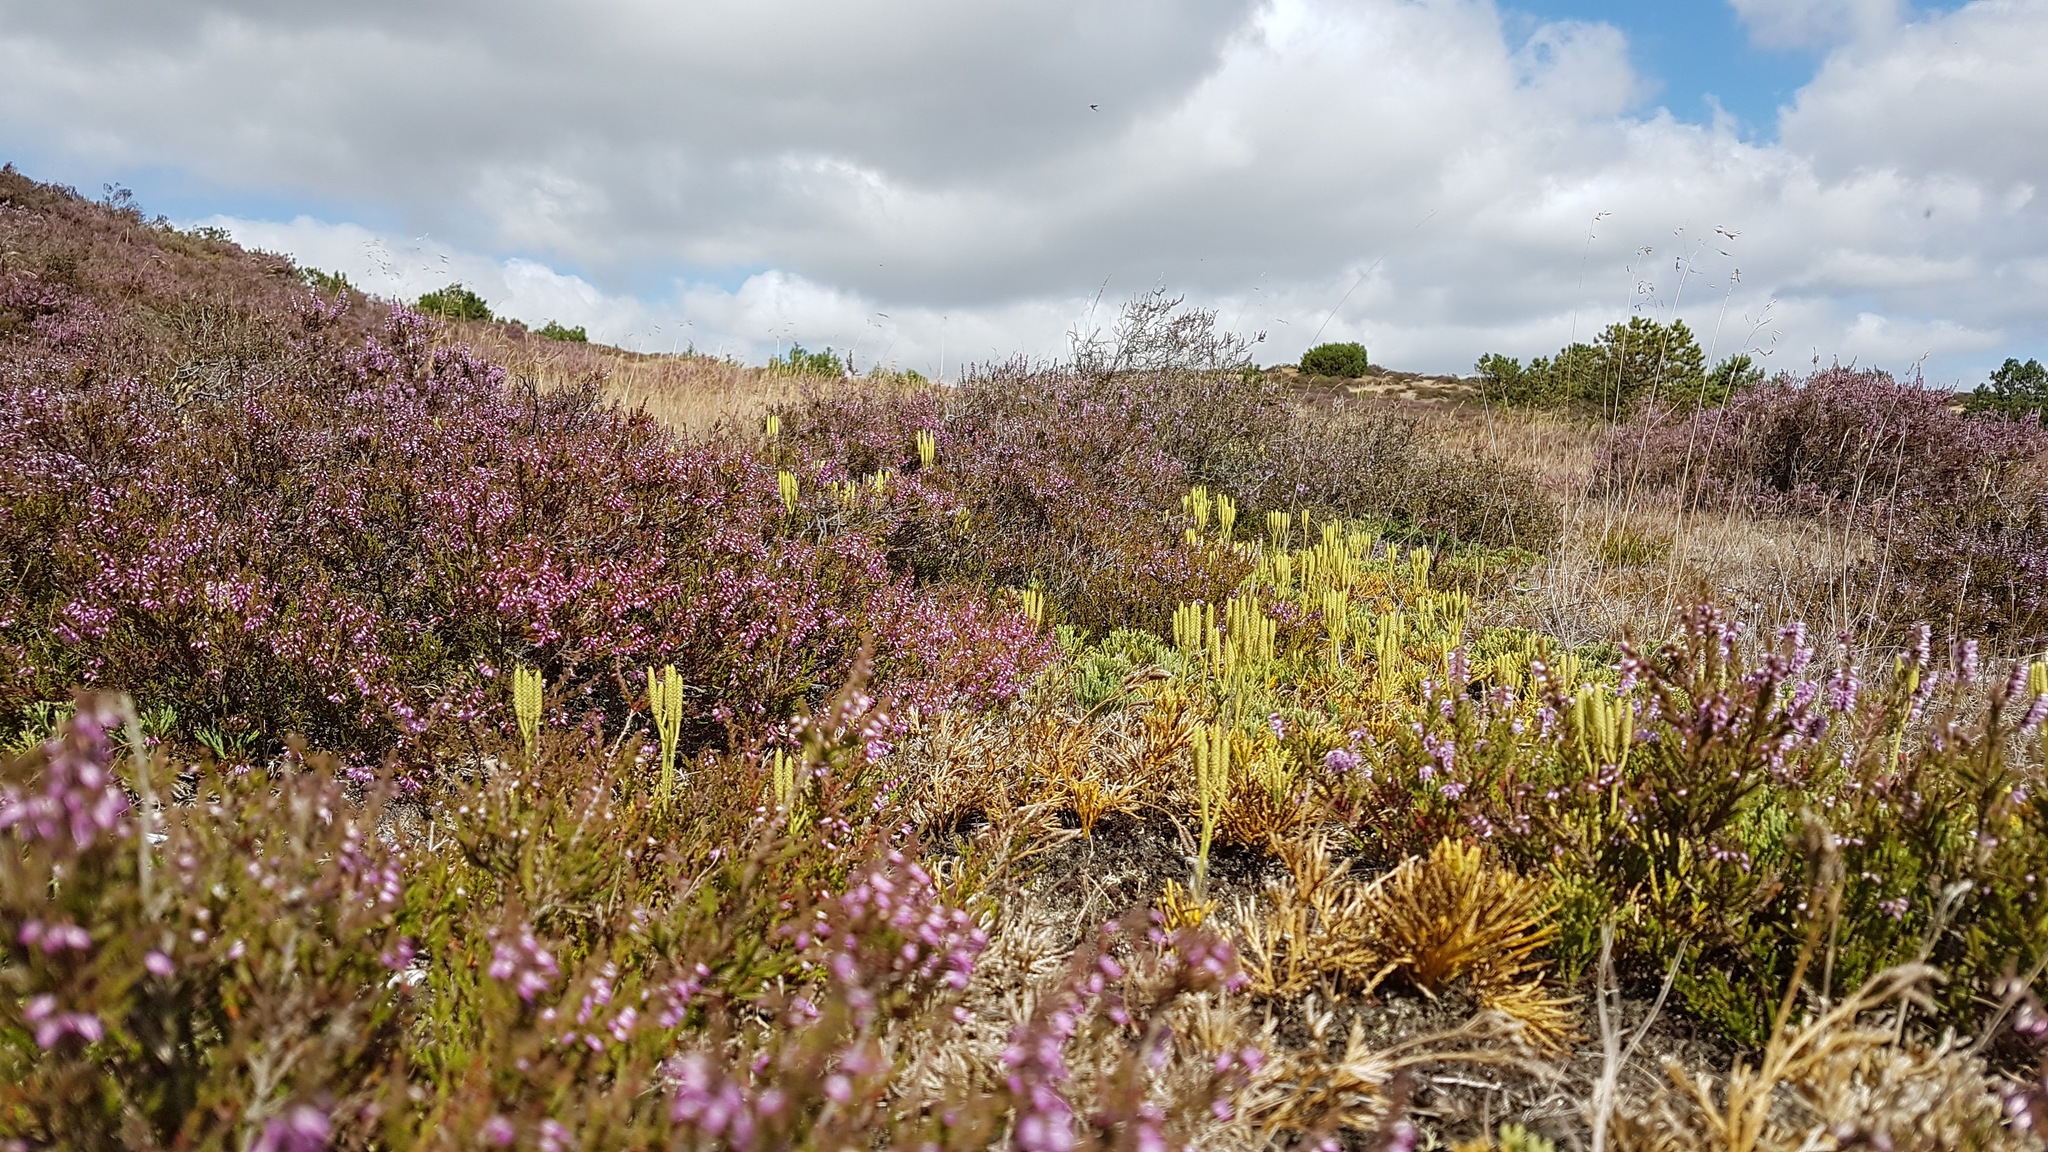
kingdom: Plantae
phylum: Tracheophyta
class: Lycopodiopsida
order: Lycopodiales
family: Lycopodiaceae
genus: Diphasiastrum
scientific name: Diphasiastrum tristachyum
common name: Blue ground-cedar
